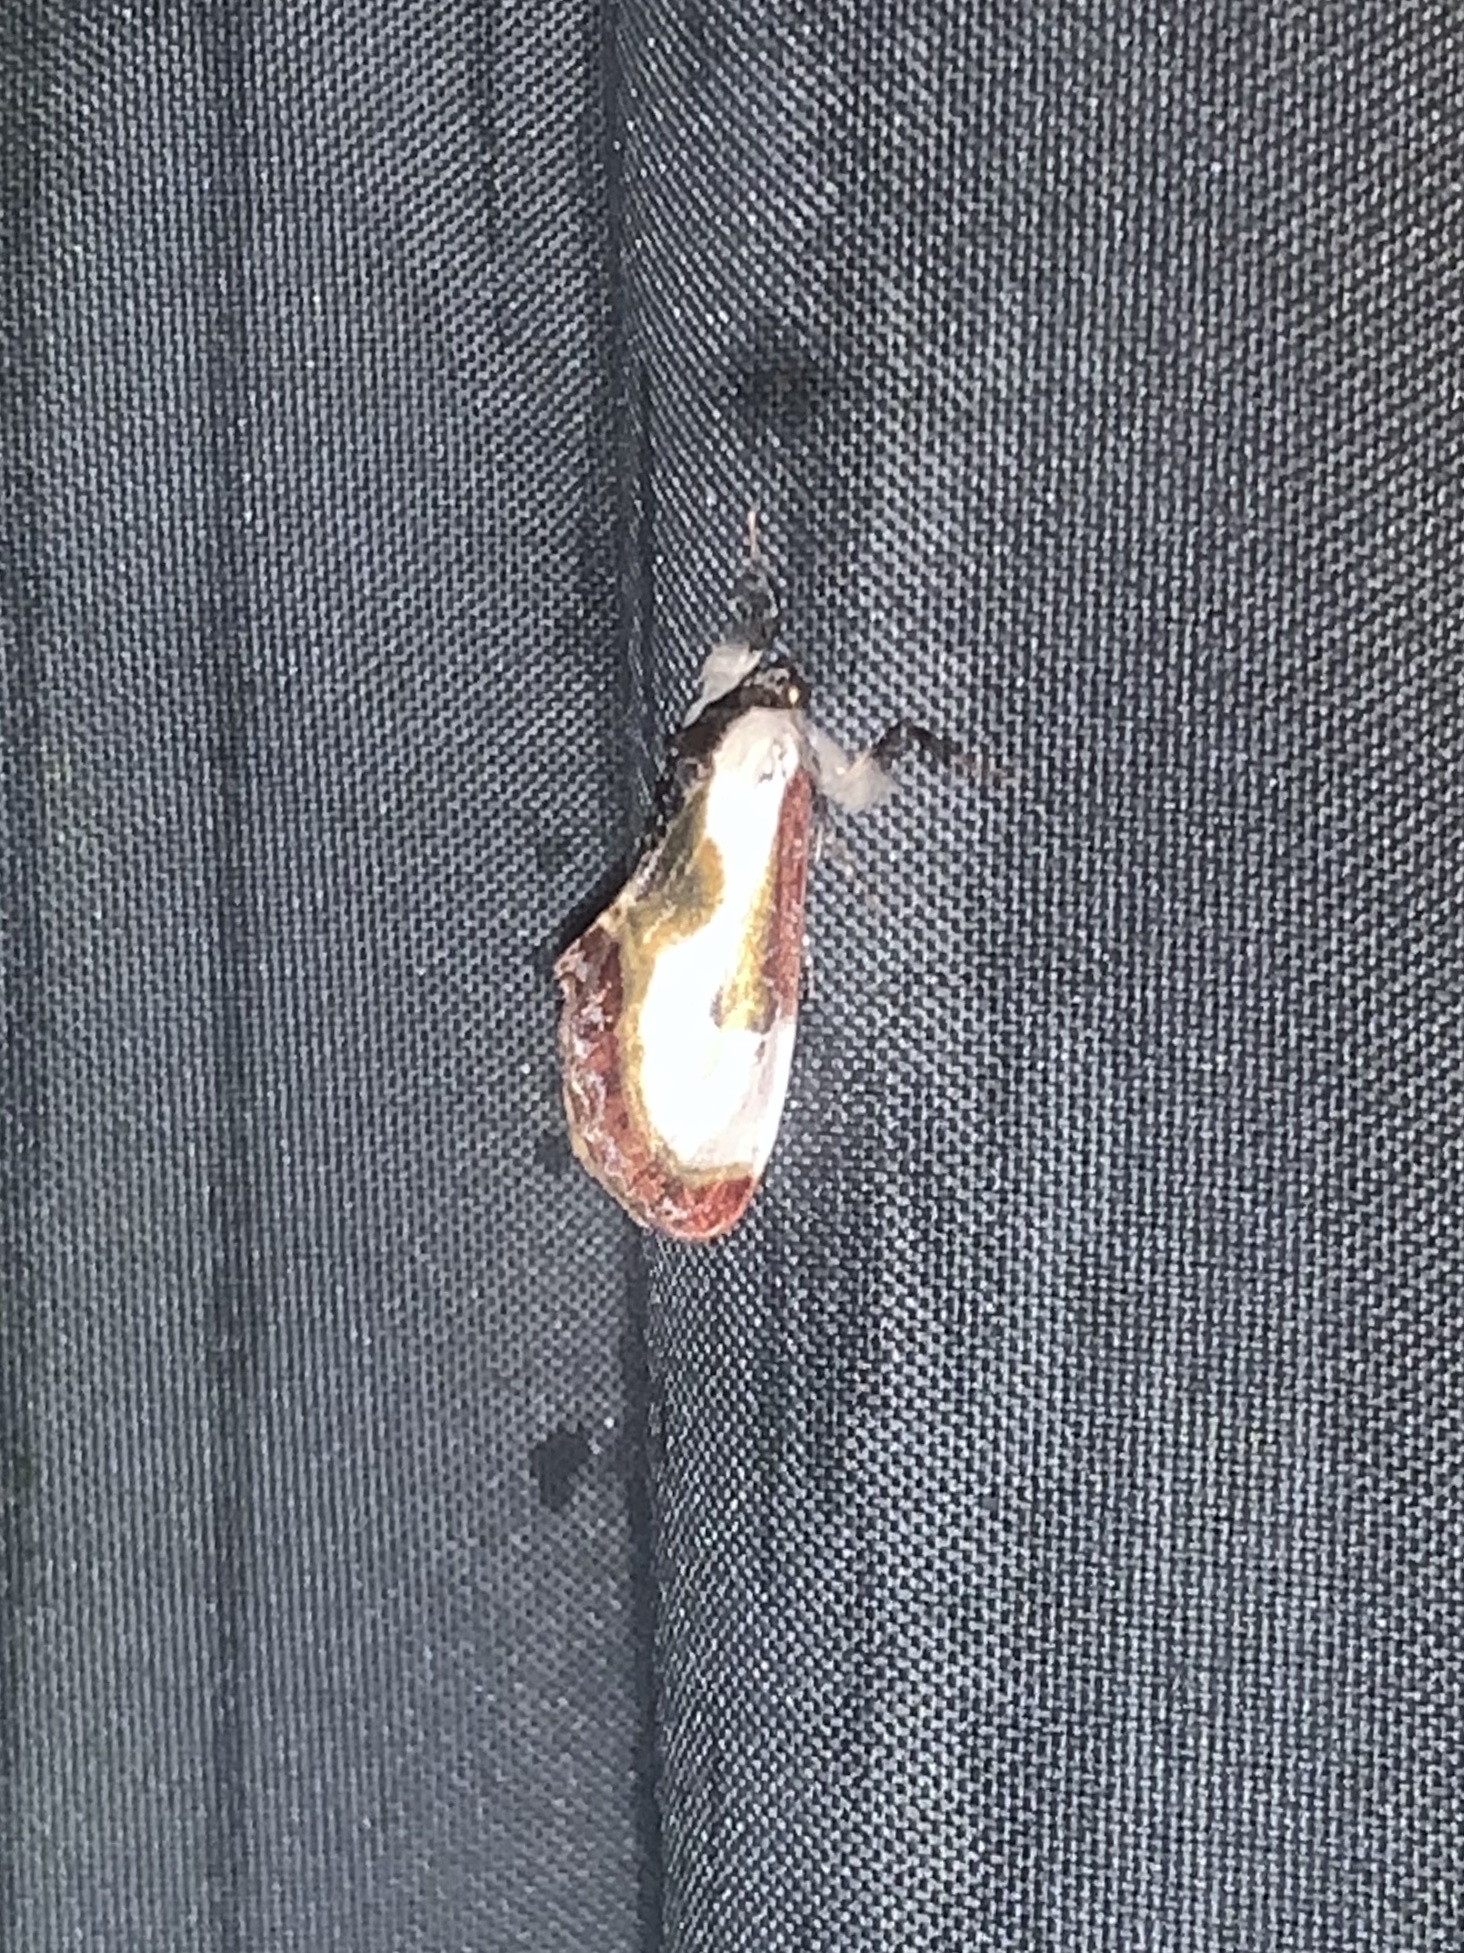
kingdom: Animalia
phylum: Arthropoda
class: Insecta
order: Lepidoptera
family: Noctuidae
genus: Eudryas
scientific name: Eudryas grata
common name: Beautiful wood-nymph
